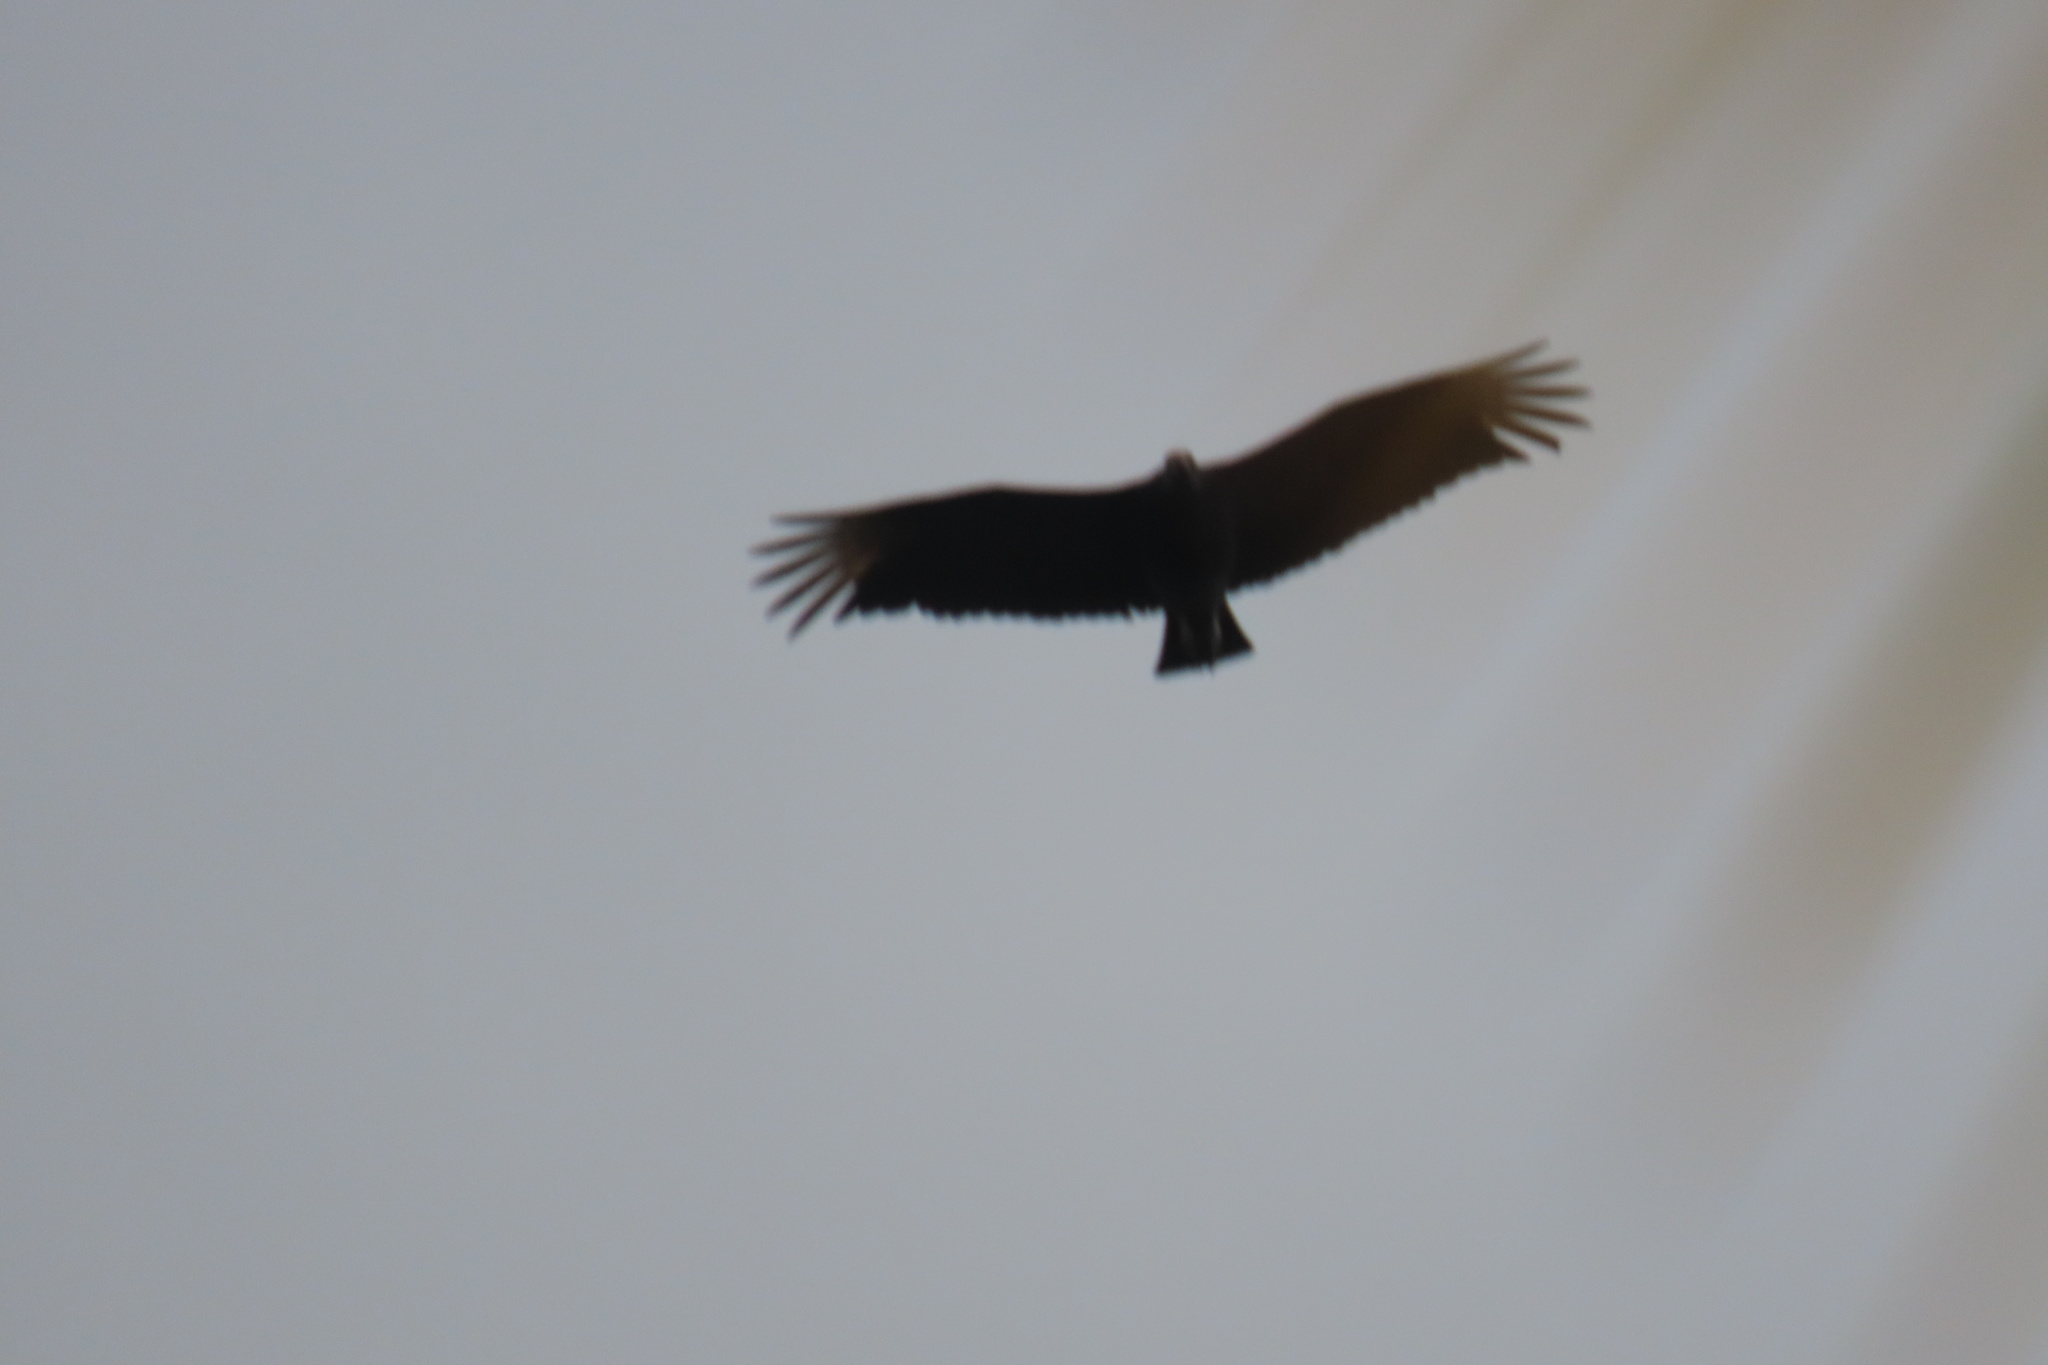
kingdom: Animalia
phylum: Chordata
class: Aves
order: Accipitriformes
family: Cathartidae
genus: Coragyps
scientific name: Coragyps atratus
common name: Black vulture
